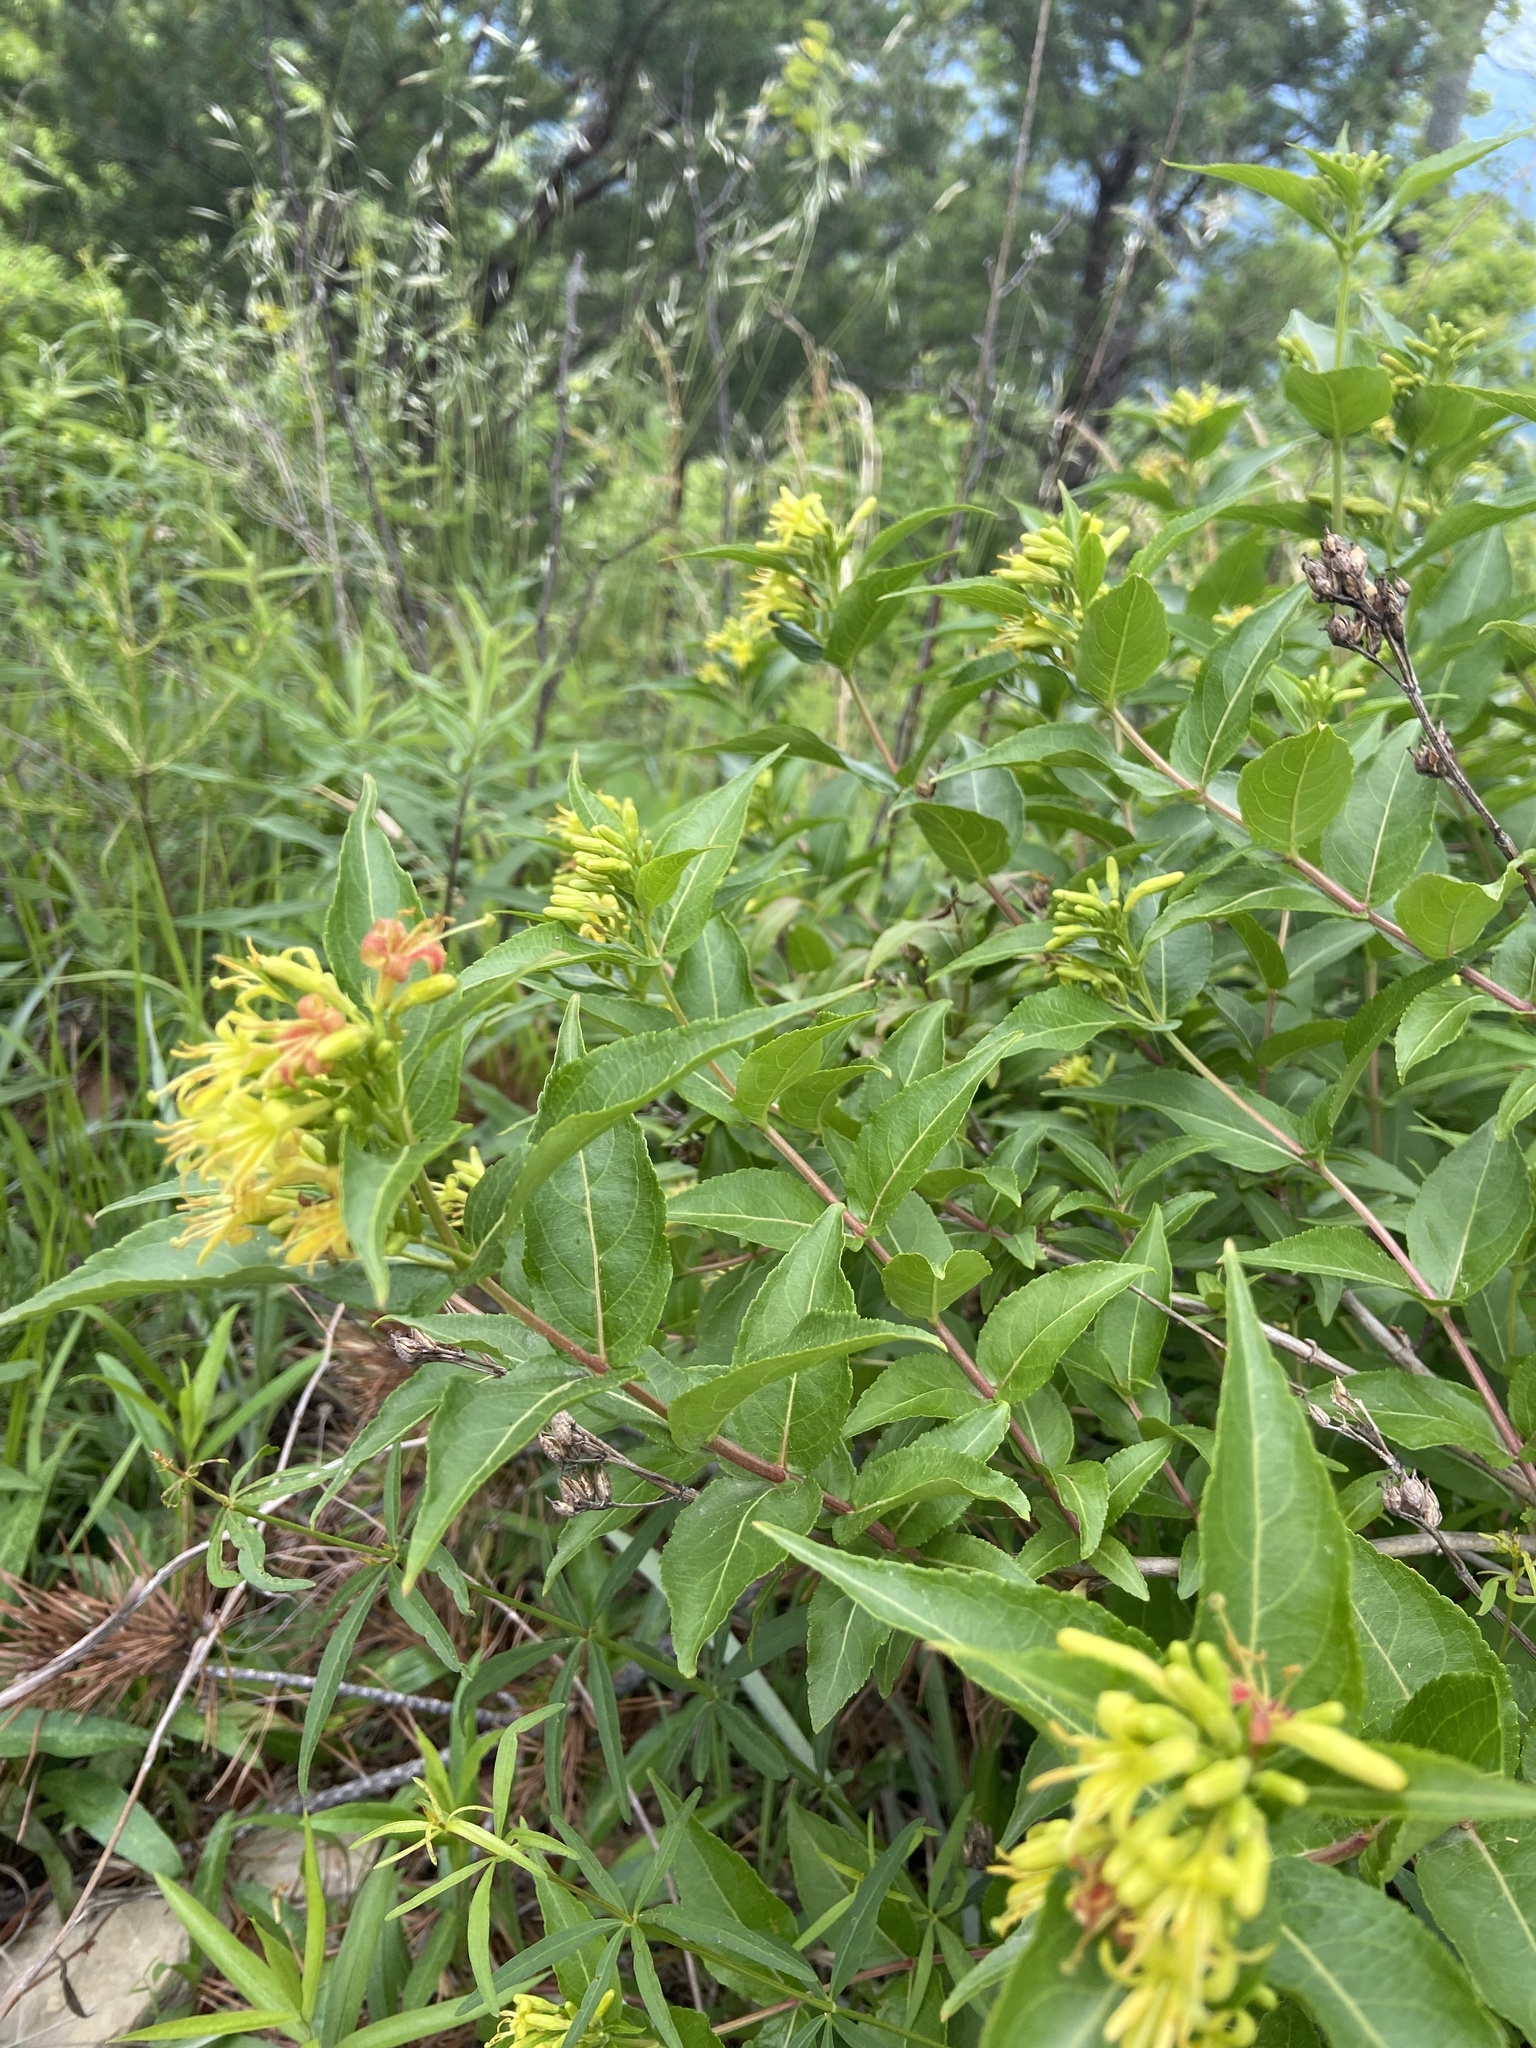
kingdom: Plantae
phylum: Tracheophyta
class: Magnoliopsida
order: Dipsacales
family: Caprifoliaceae
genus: Diervilla
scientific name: Diervilla sessilifolia
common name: Bush-honeysuckle
